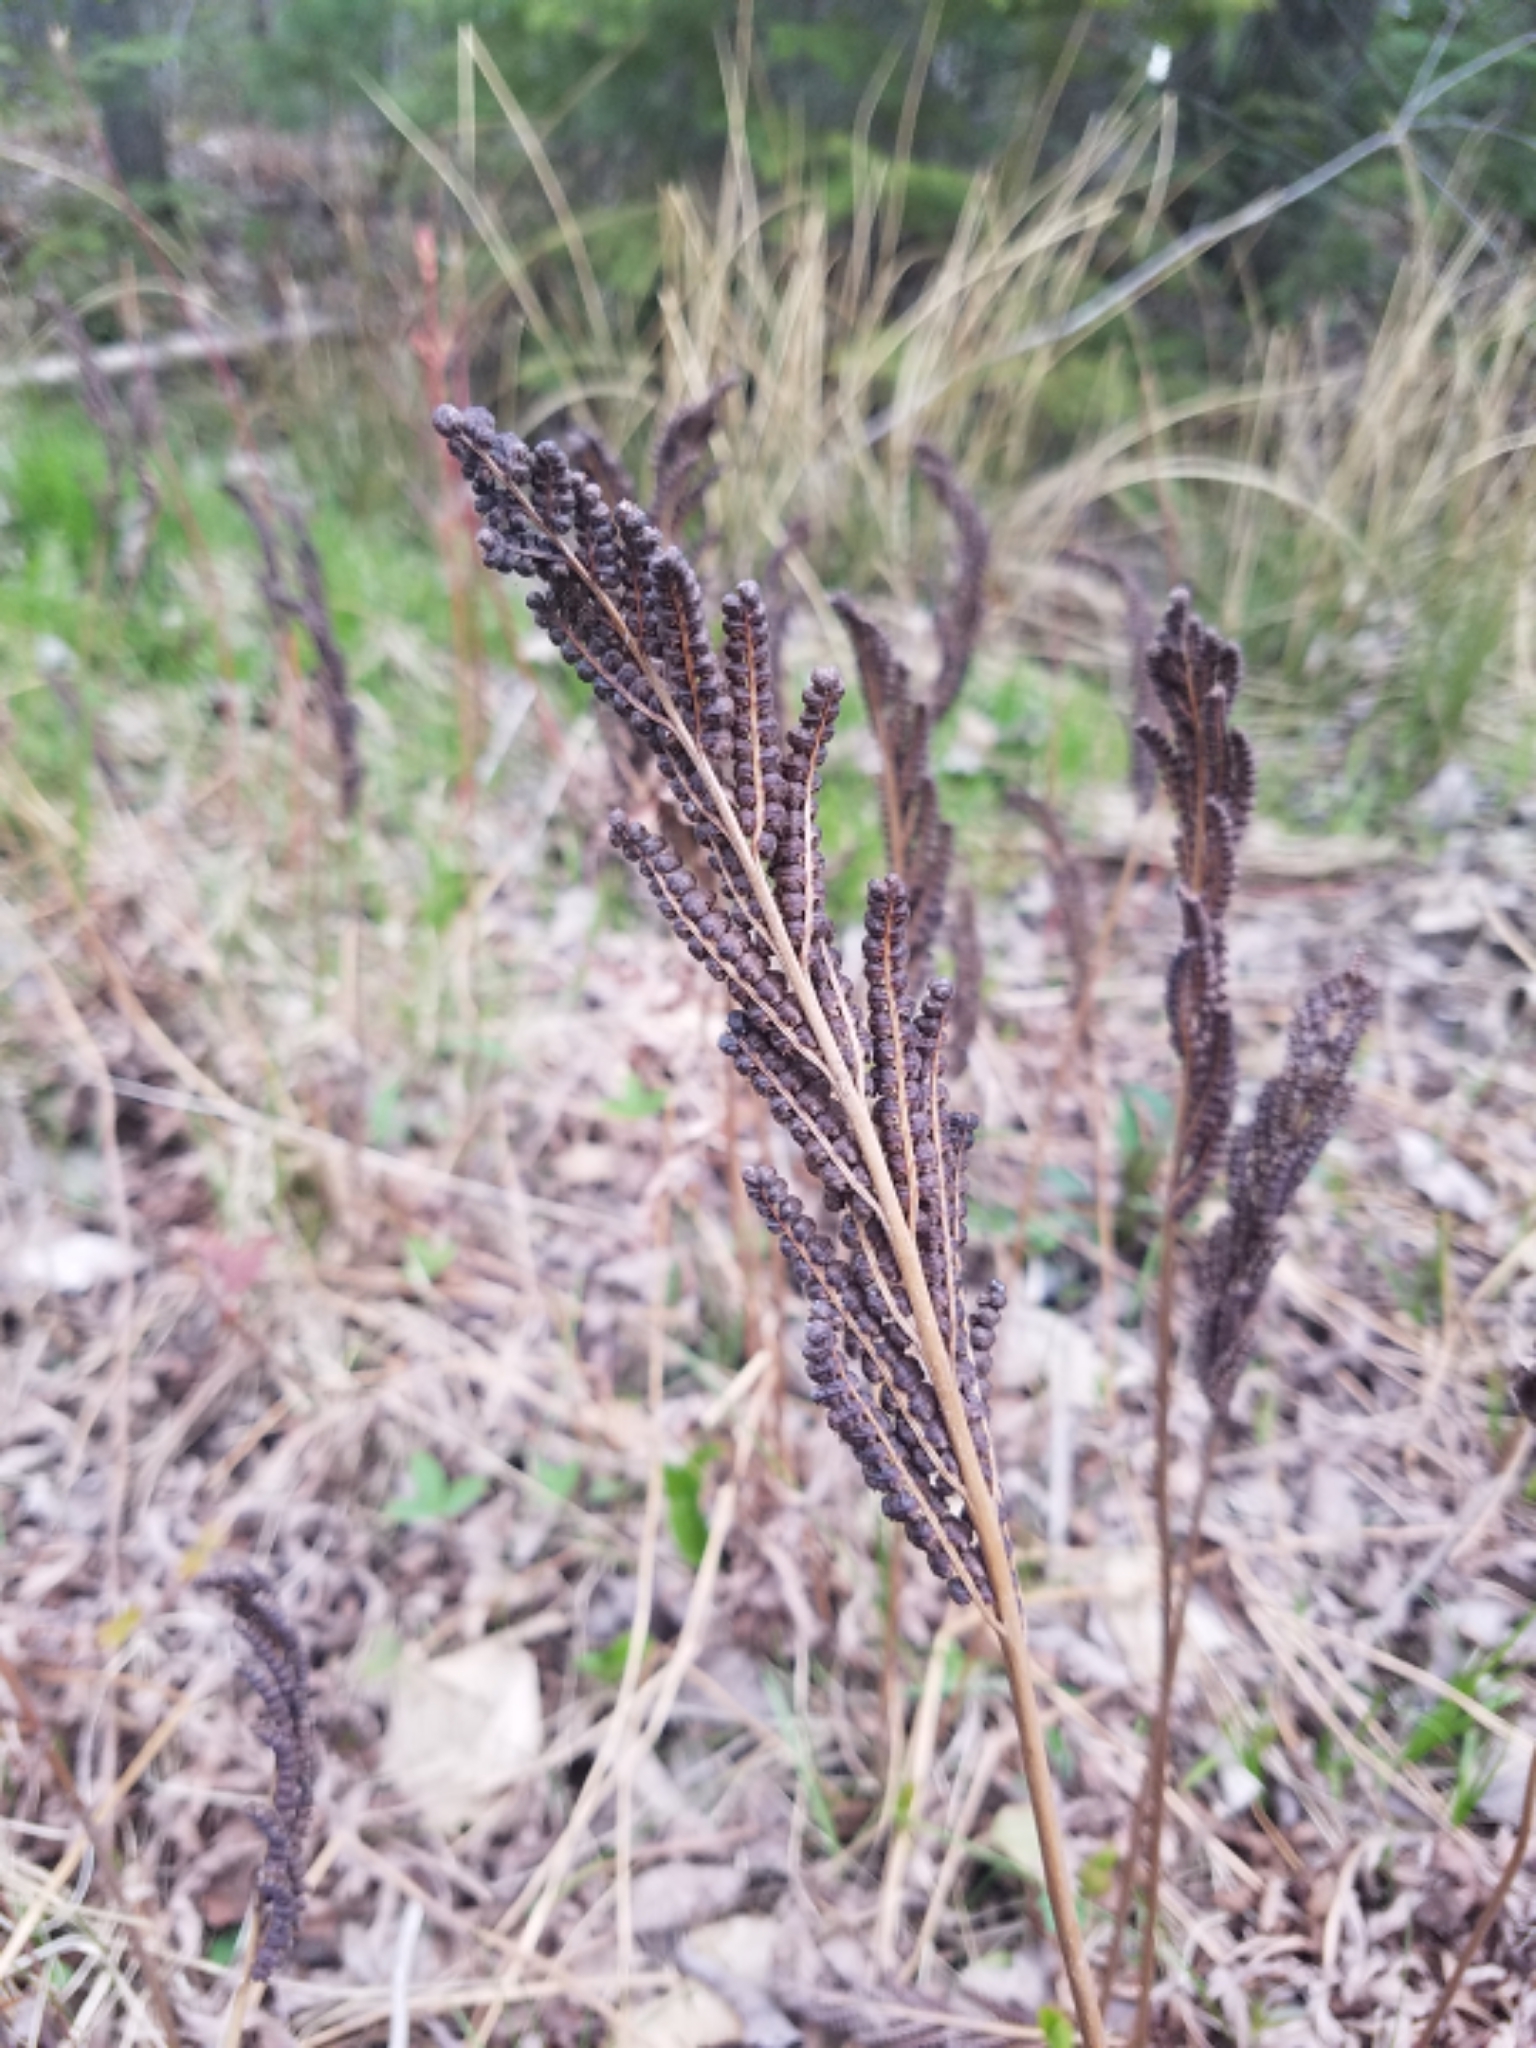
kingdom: Plantae
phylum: Tracheophyta
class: Polypodiopsida
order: Polypodiales
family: Onocleaceae
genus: Onoclea
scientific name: Onoclea sensibilis
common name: Sensitive fern
